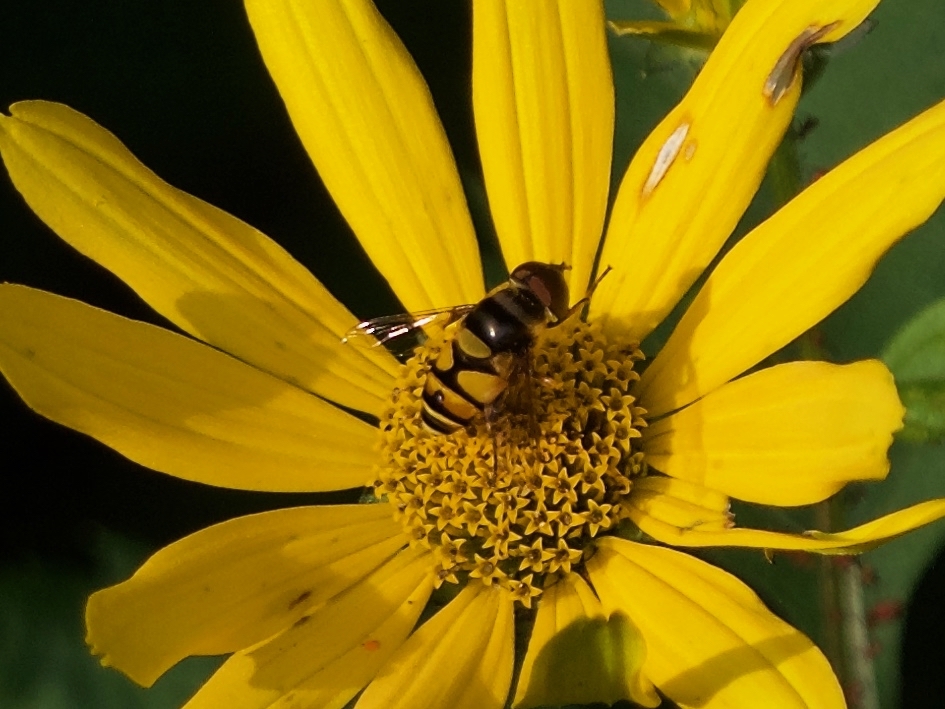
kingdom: Animalia
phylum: Arthropoda
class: Insecta
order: Diptera
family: Syrphidae
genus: Eristalis
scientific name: Eristalis transversa
